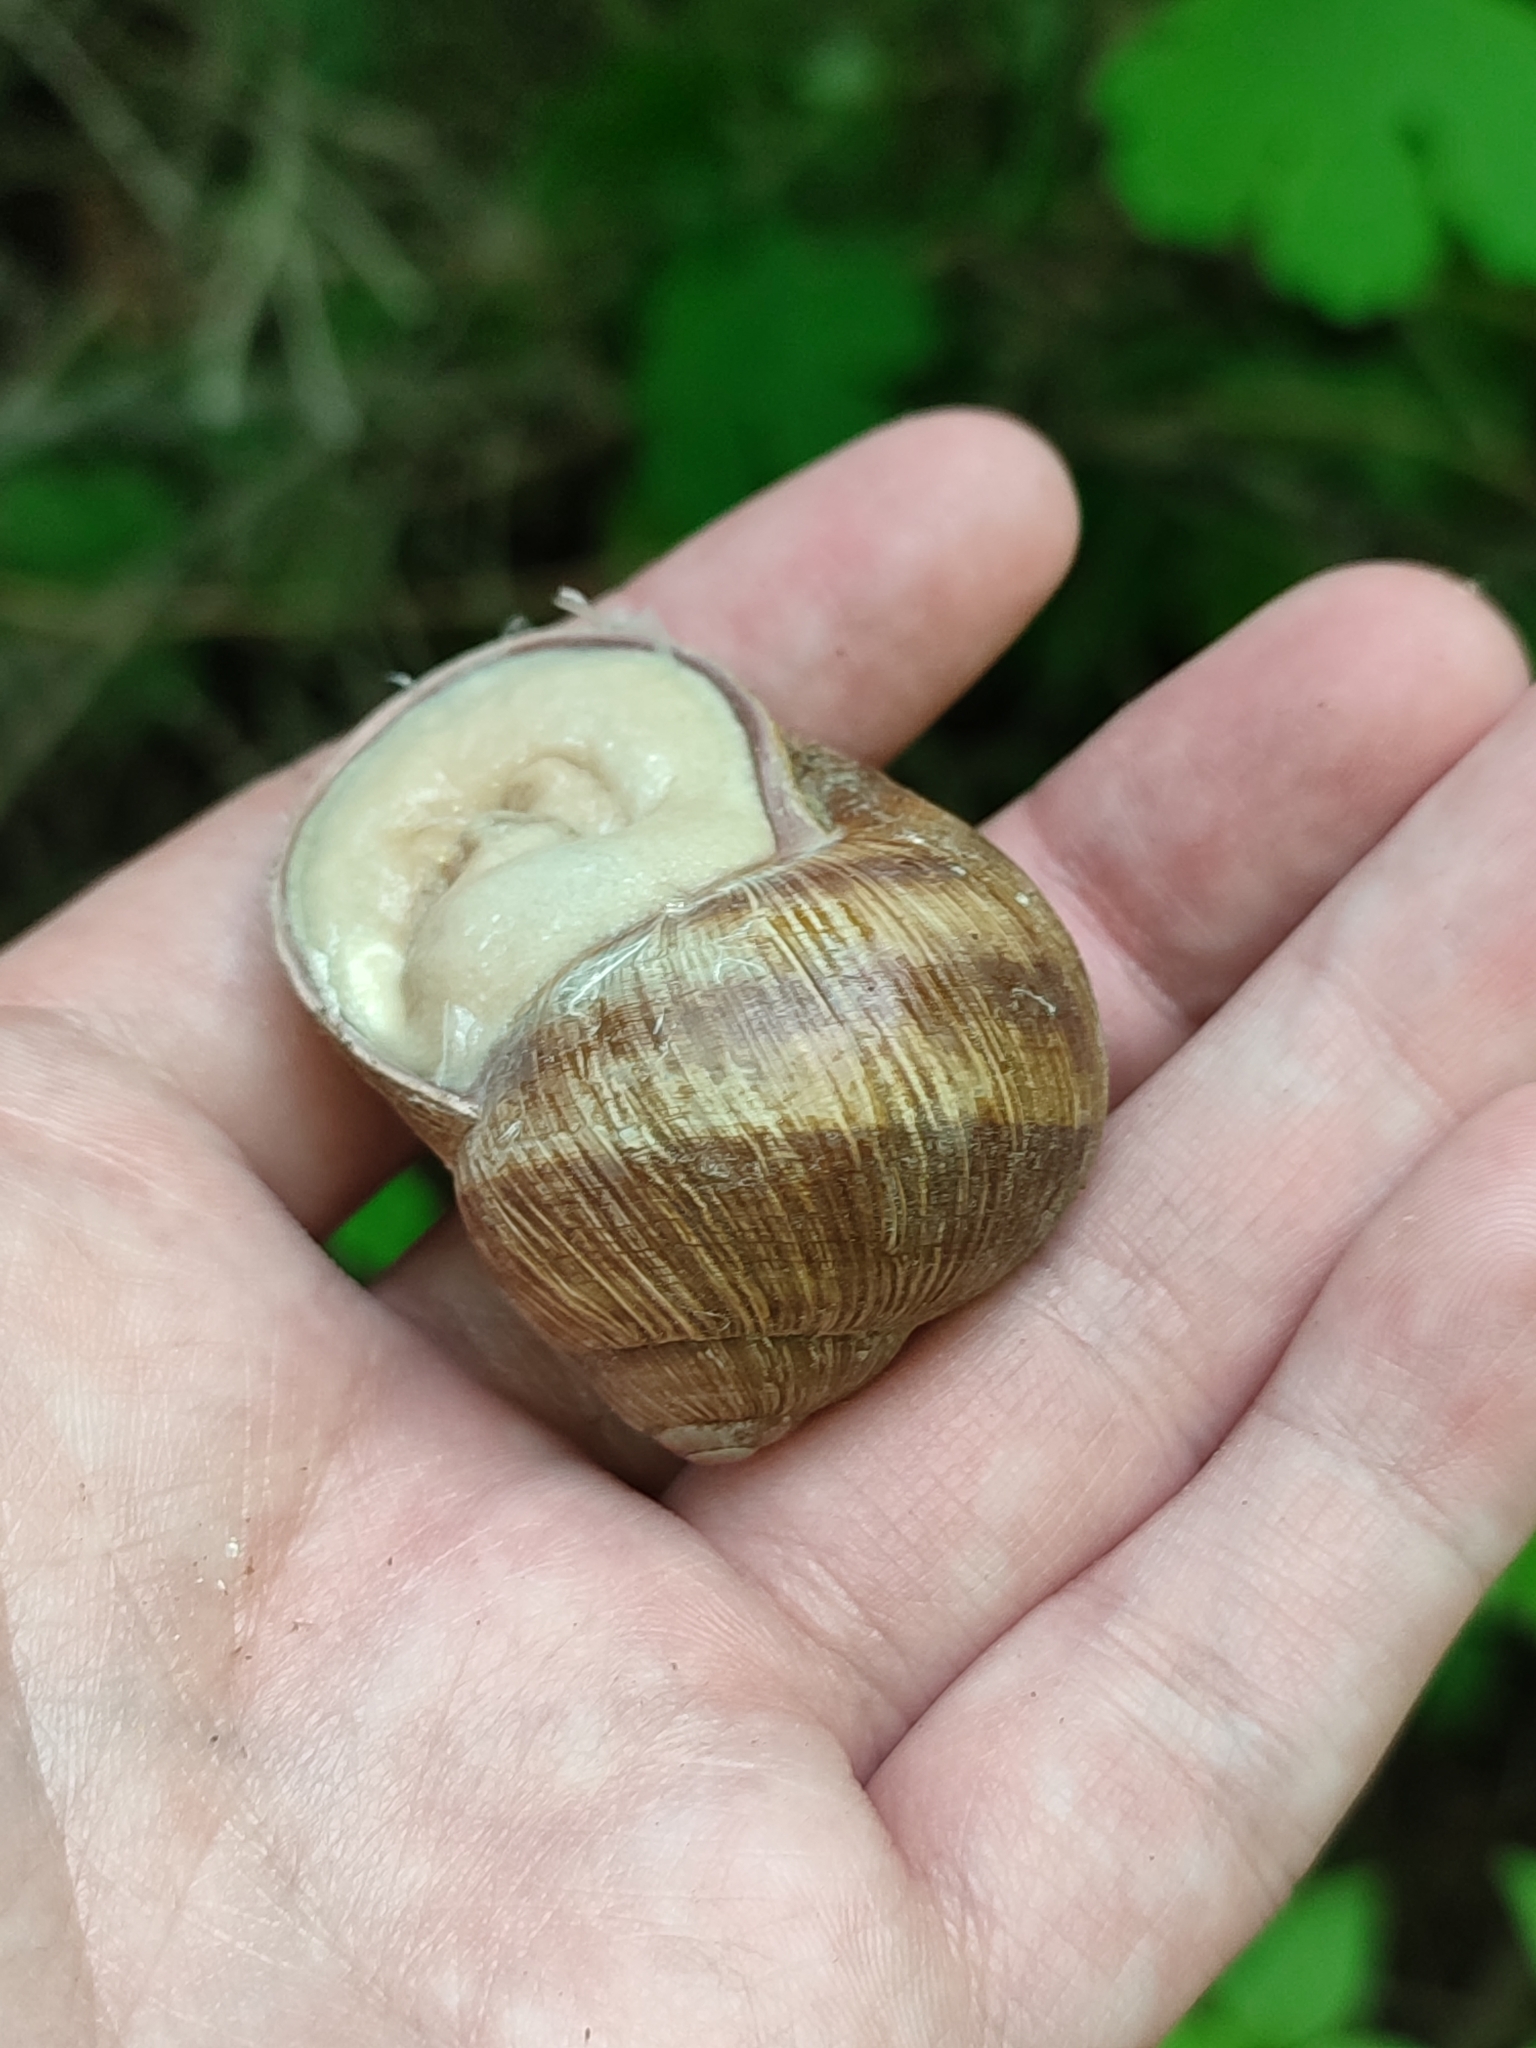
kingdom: Animalia
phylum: Mollusca
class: Gastropoda
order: Stylommatophora
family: Helicidae
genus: Helix
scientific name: Helix pomatia
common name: Roman snail
